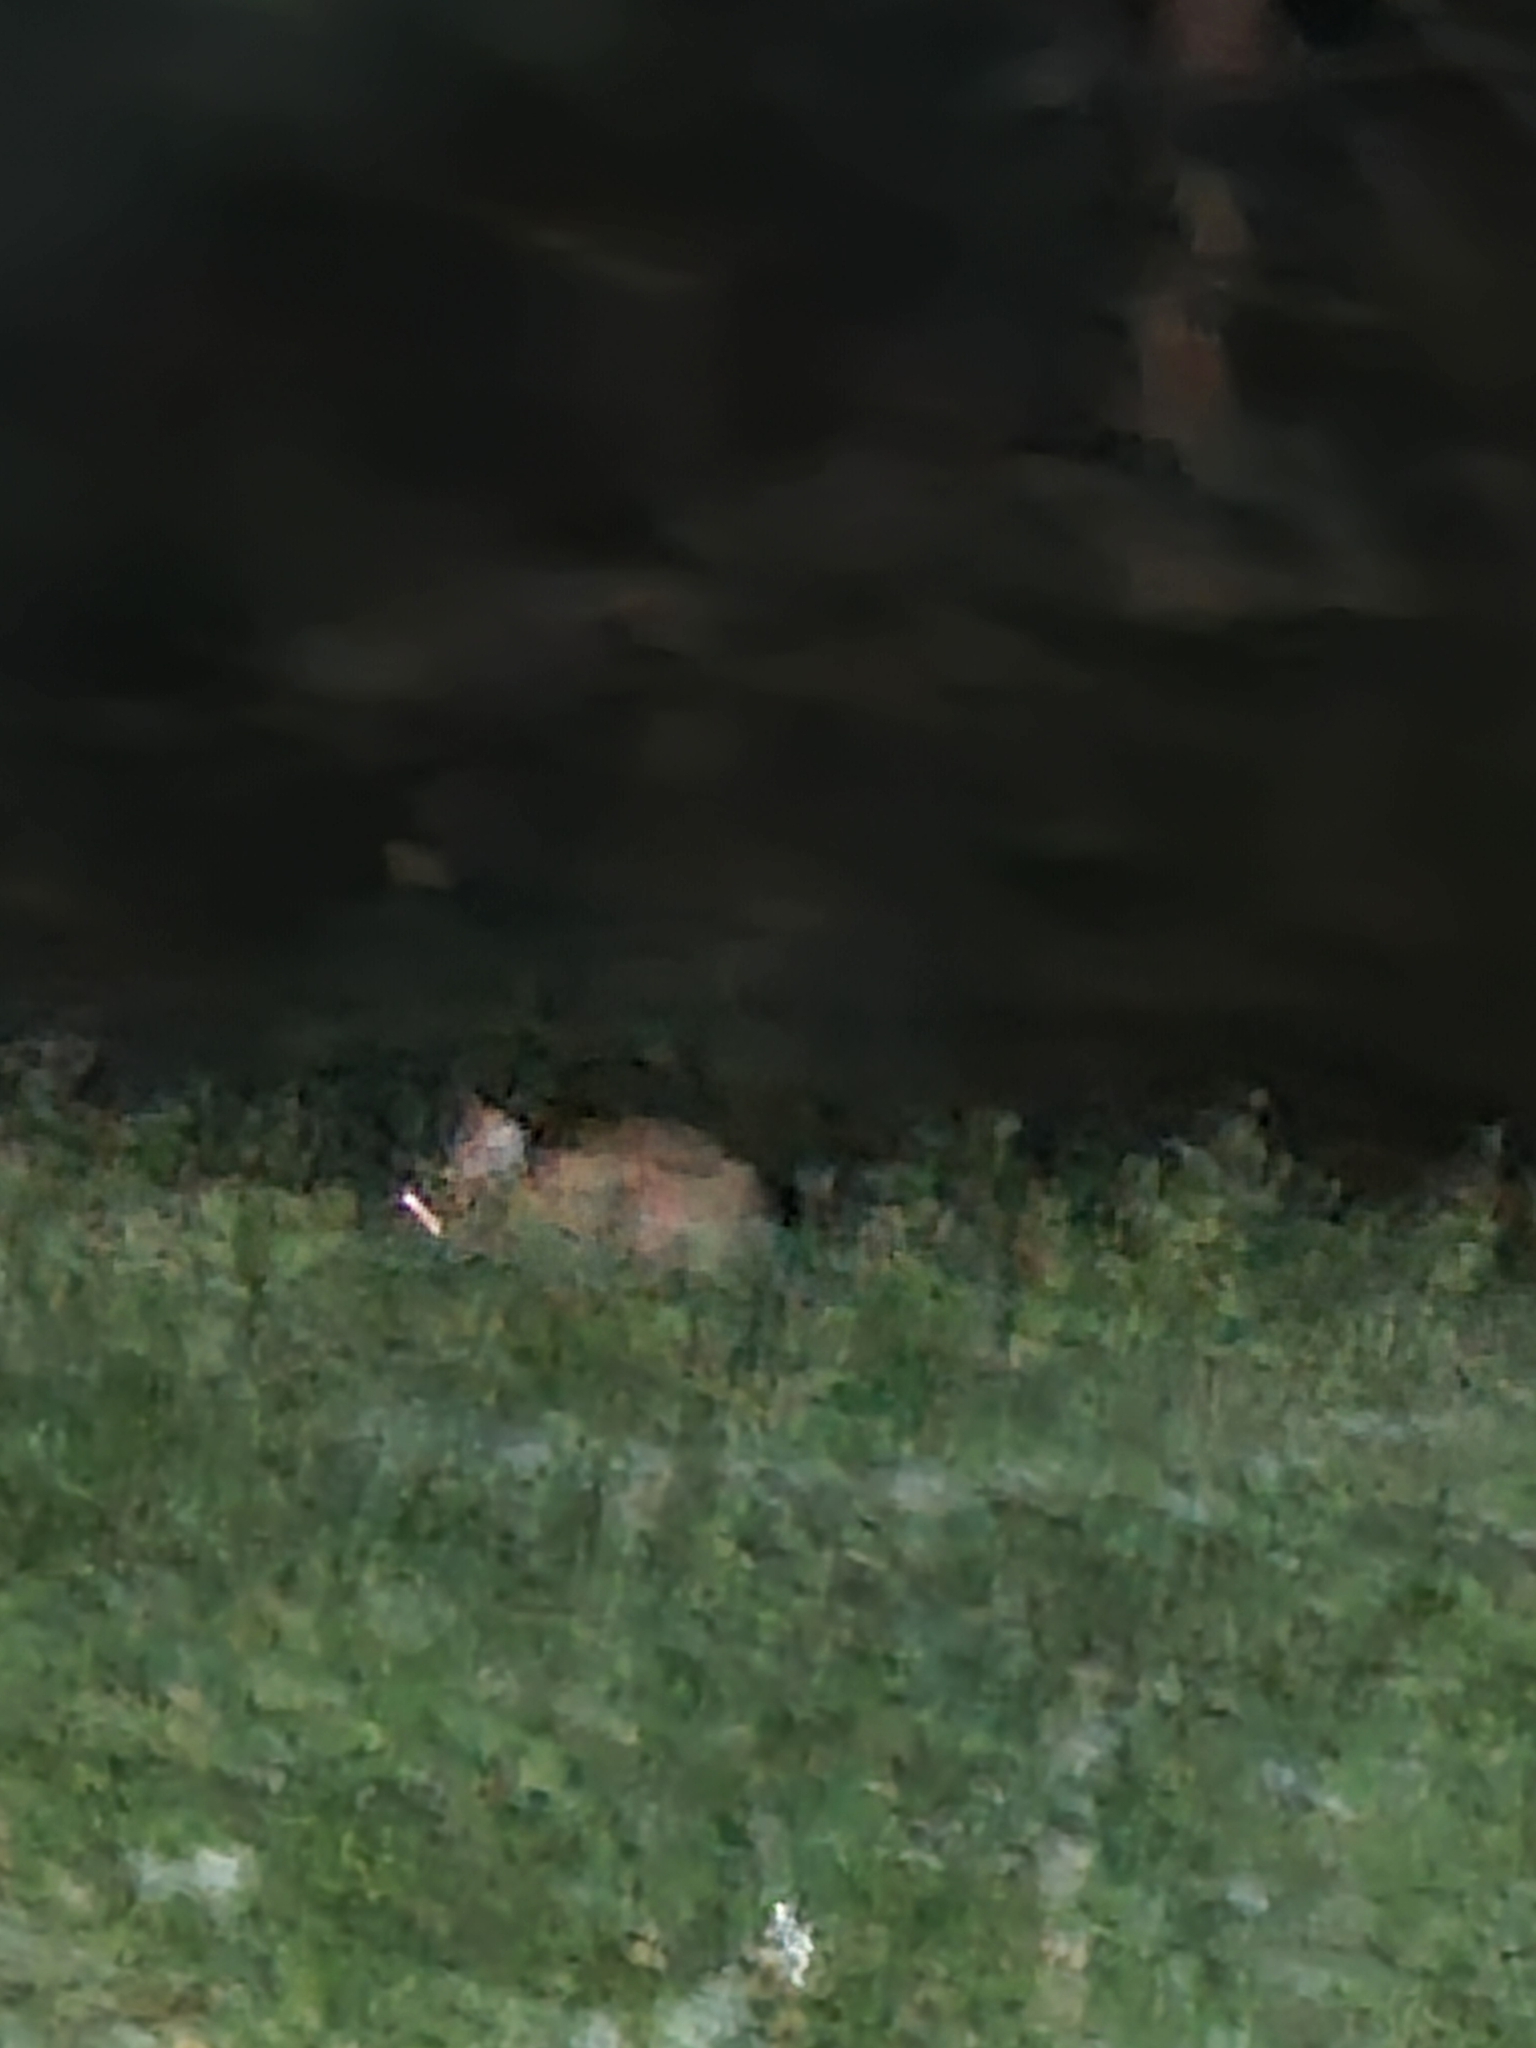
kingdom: Animalia
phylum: Chordata
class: Mammalia
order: Lagomorpha
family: Leporidae
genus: Lepus
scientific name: Lepus europaeus
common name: European hare
